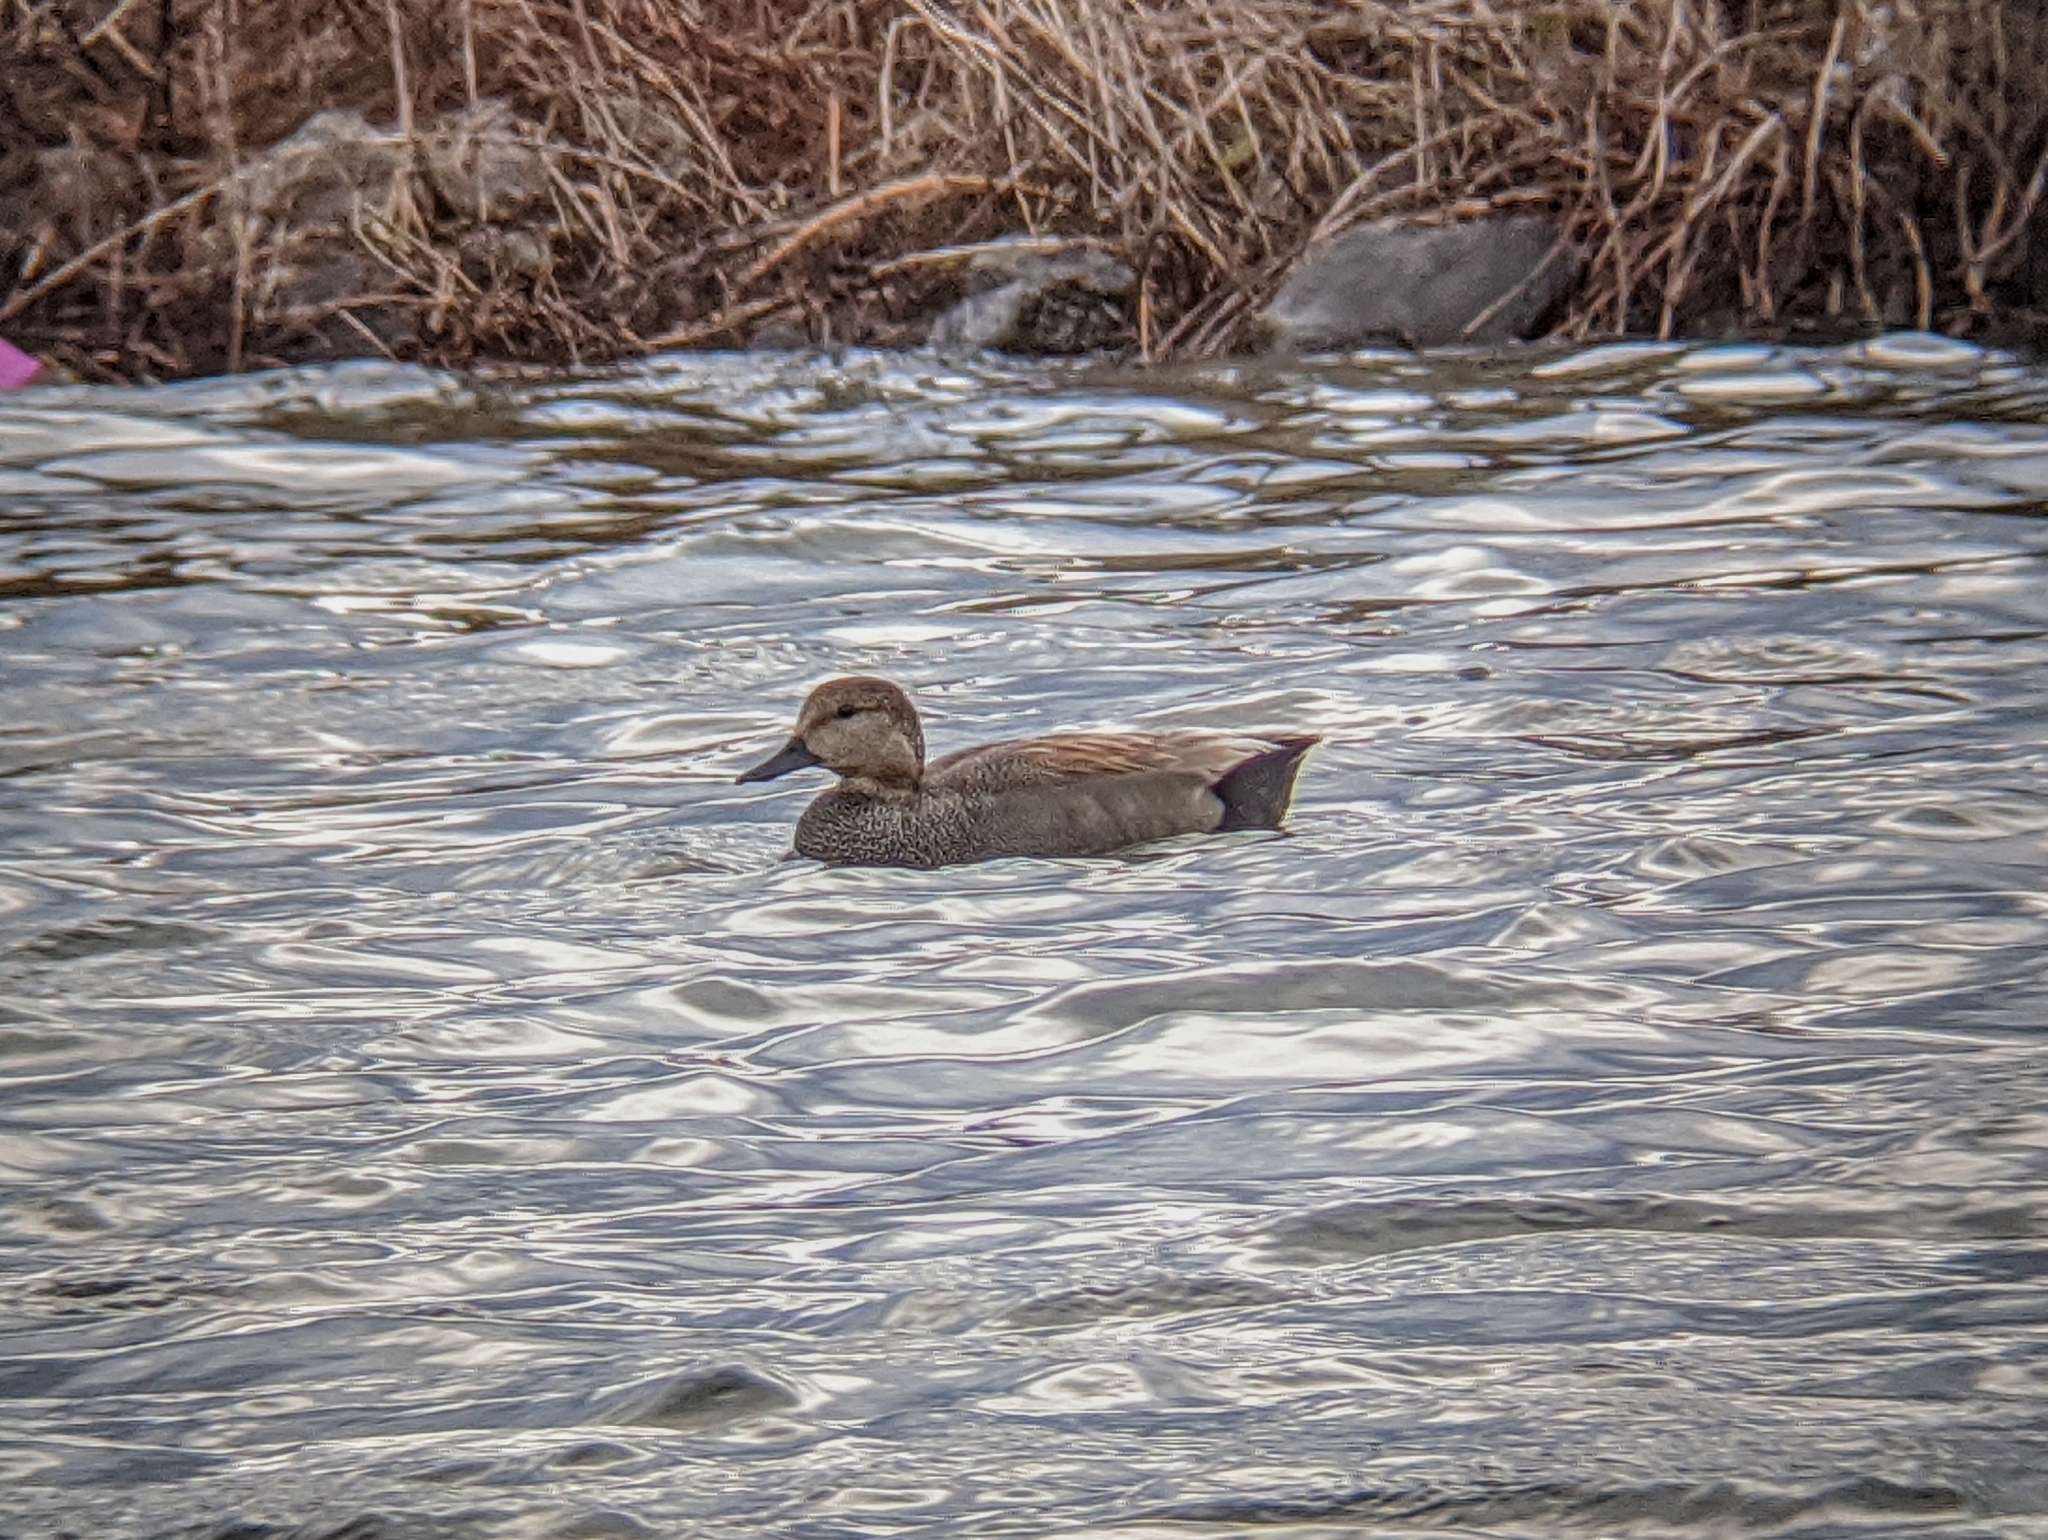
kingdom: Animalia
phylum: Chordata
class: Aves
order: Anseriformes
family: Anatidae
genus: Mareca
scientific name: Mareca strepera
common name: Gadwall
